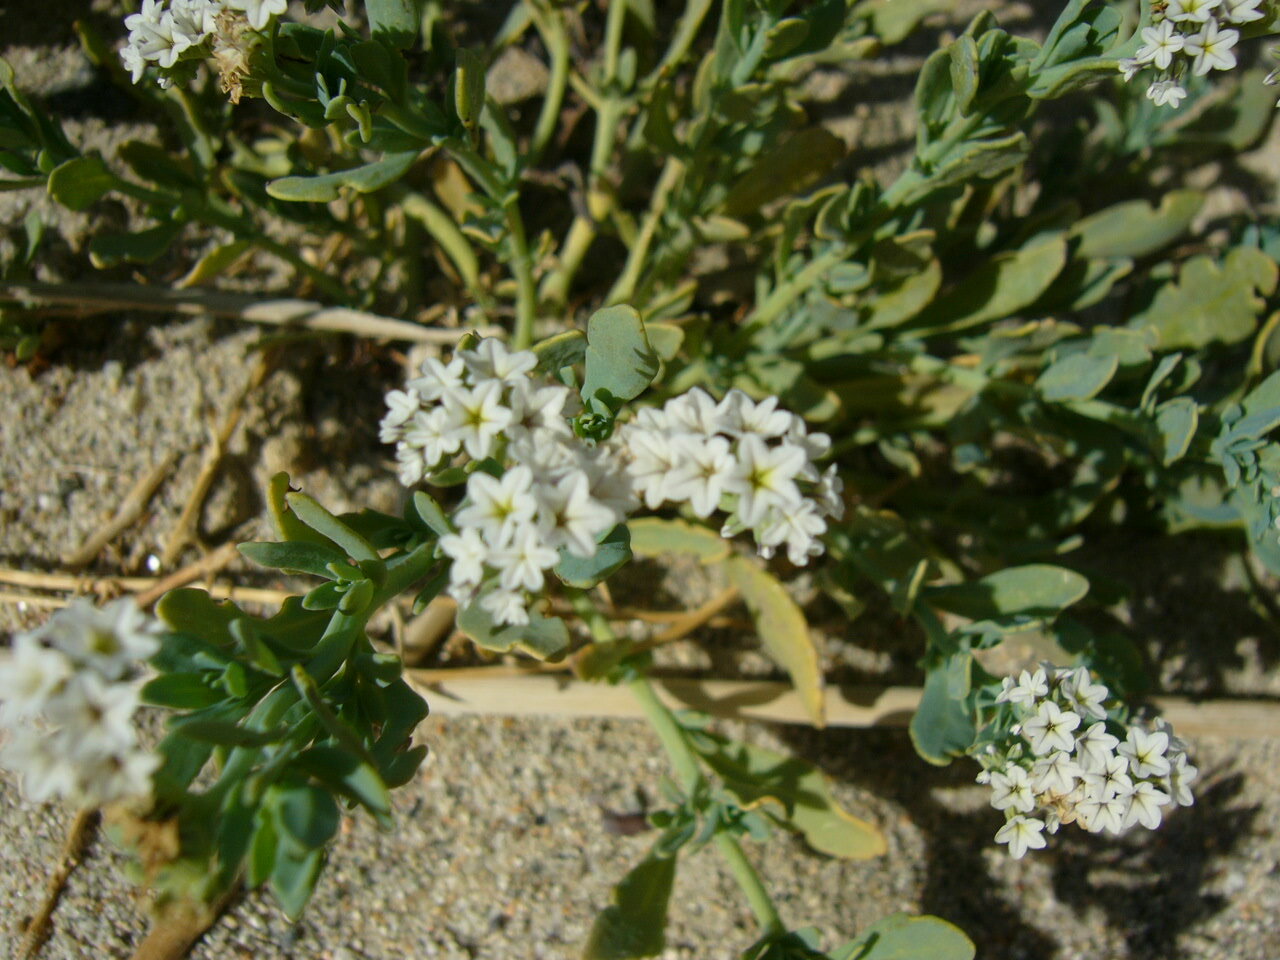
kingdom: Plantae
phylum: Tracheophyta
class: Magnoliopsida
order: Boraginales
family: Heliotropiaceae
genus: Heliotropium
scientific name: Heliotropium curassavicum
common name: Seaside heliotrope
